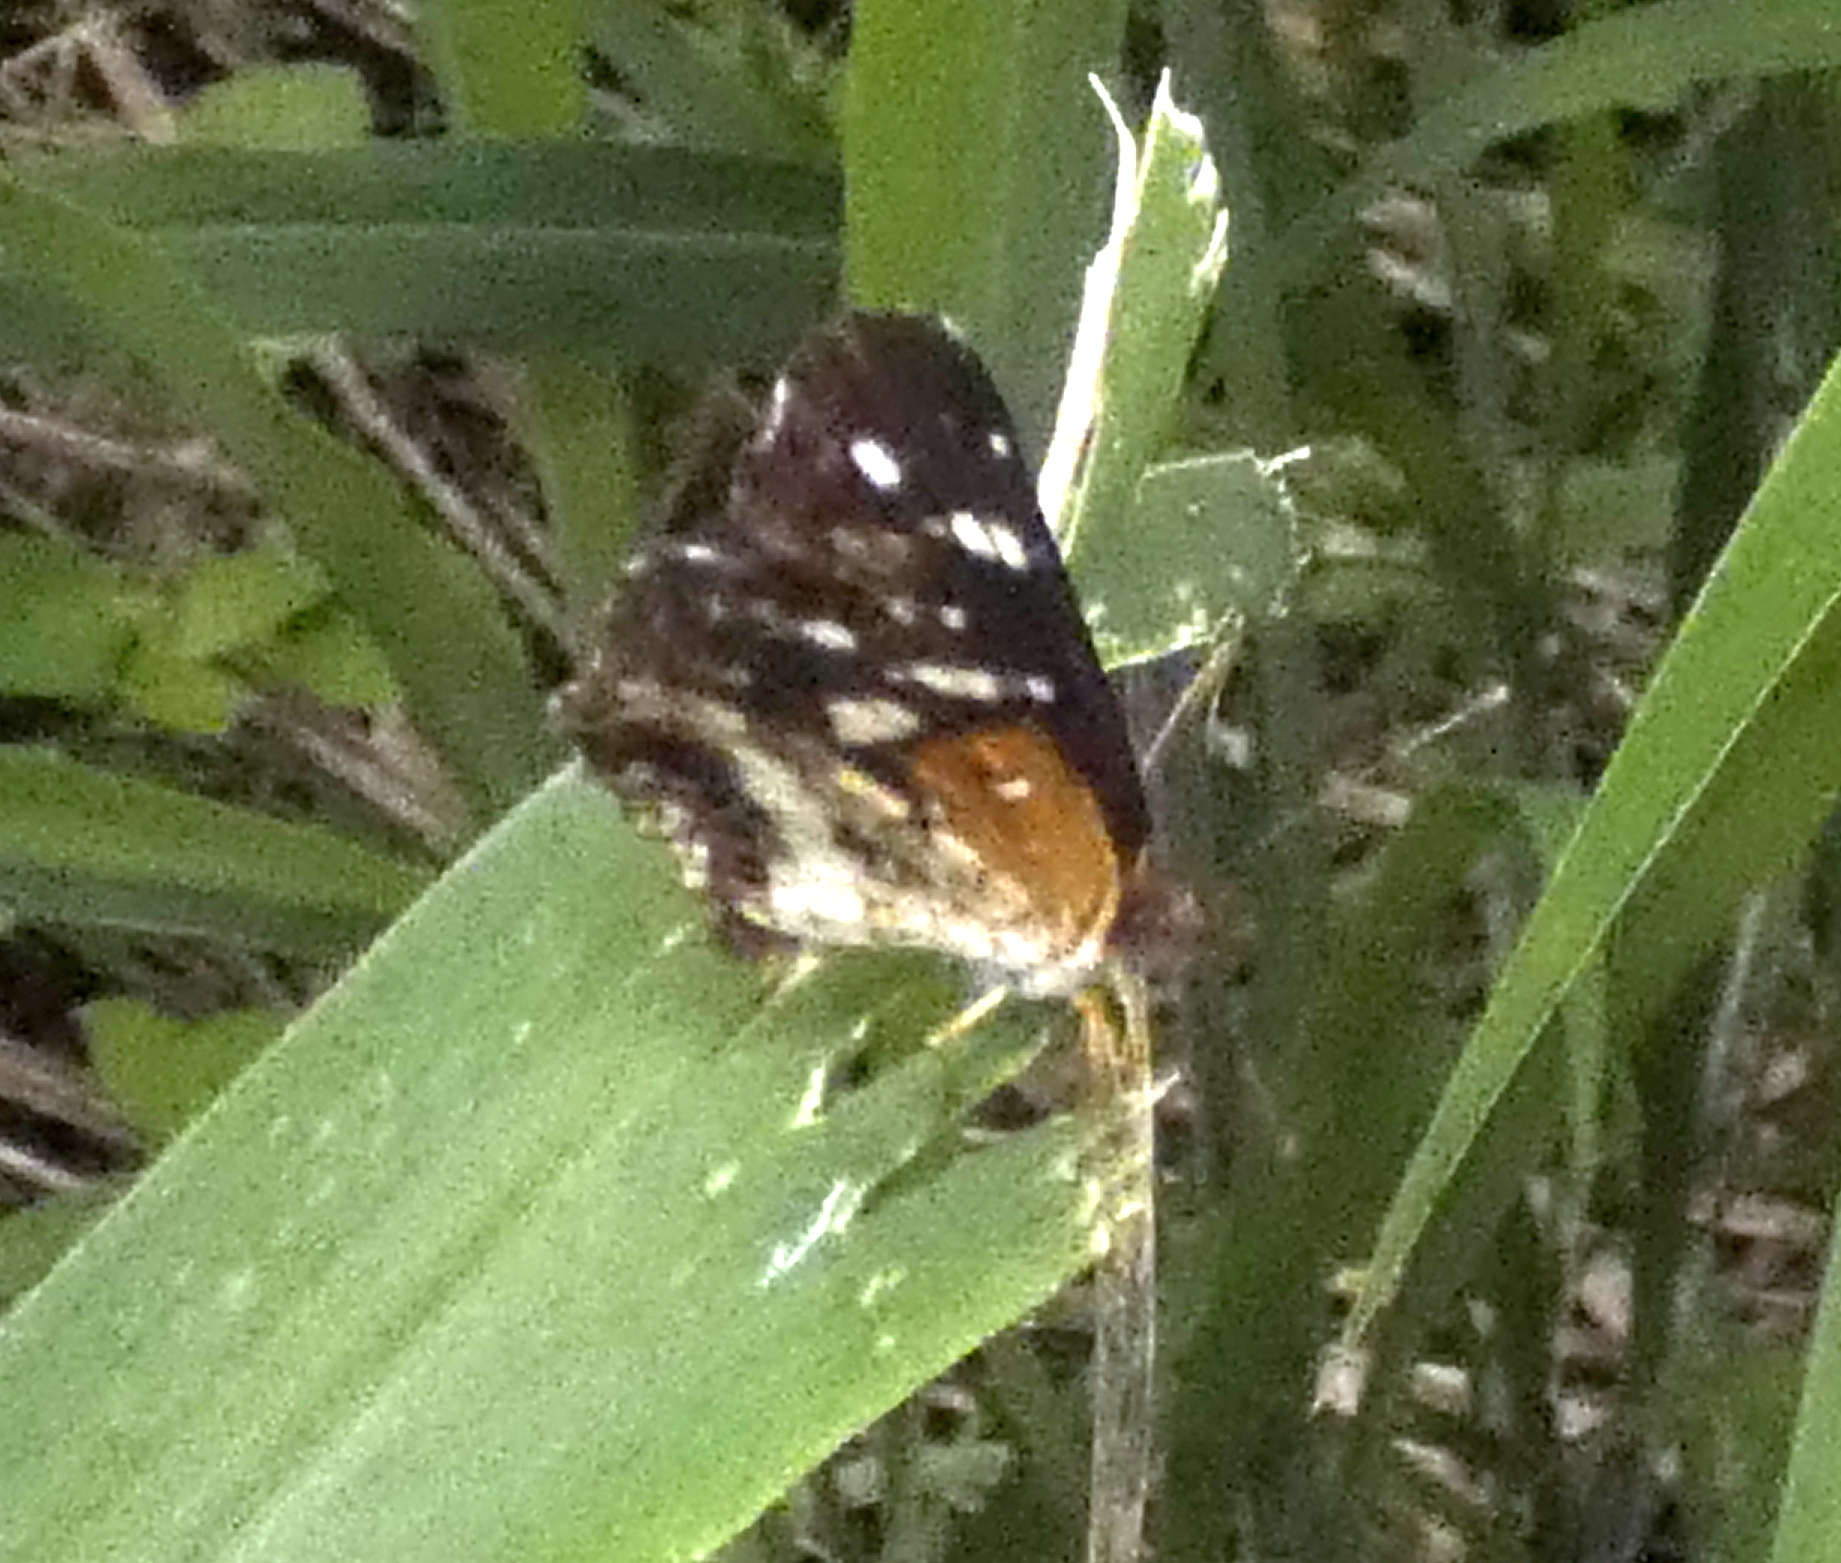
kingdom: Animalia
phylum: Arthropoda
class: Insecta
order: Lepidoptera
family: Nymphalidae
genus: Ortilia
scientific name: Ortilia ithra
